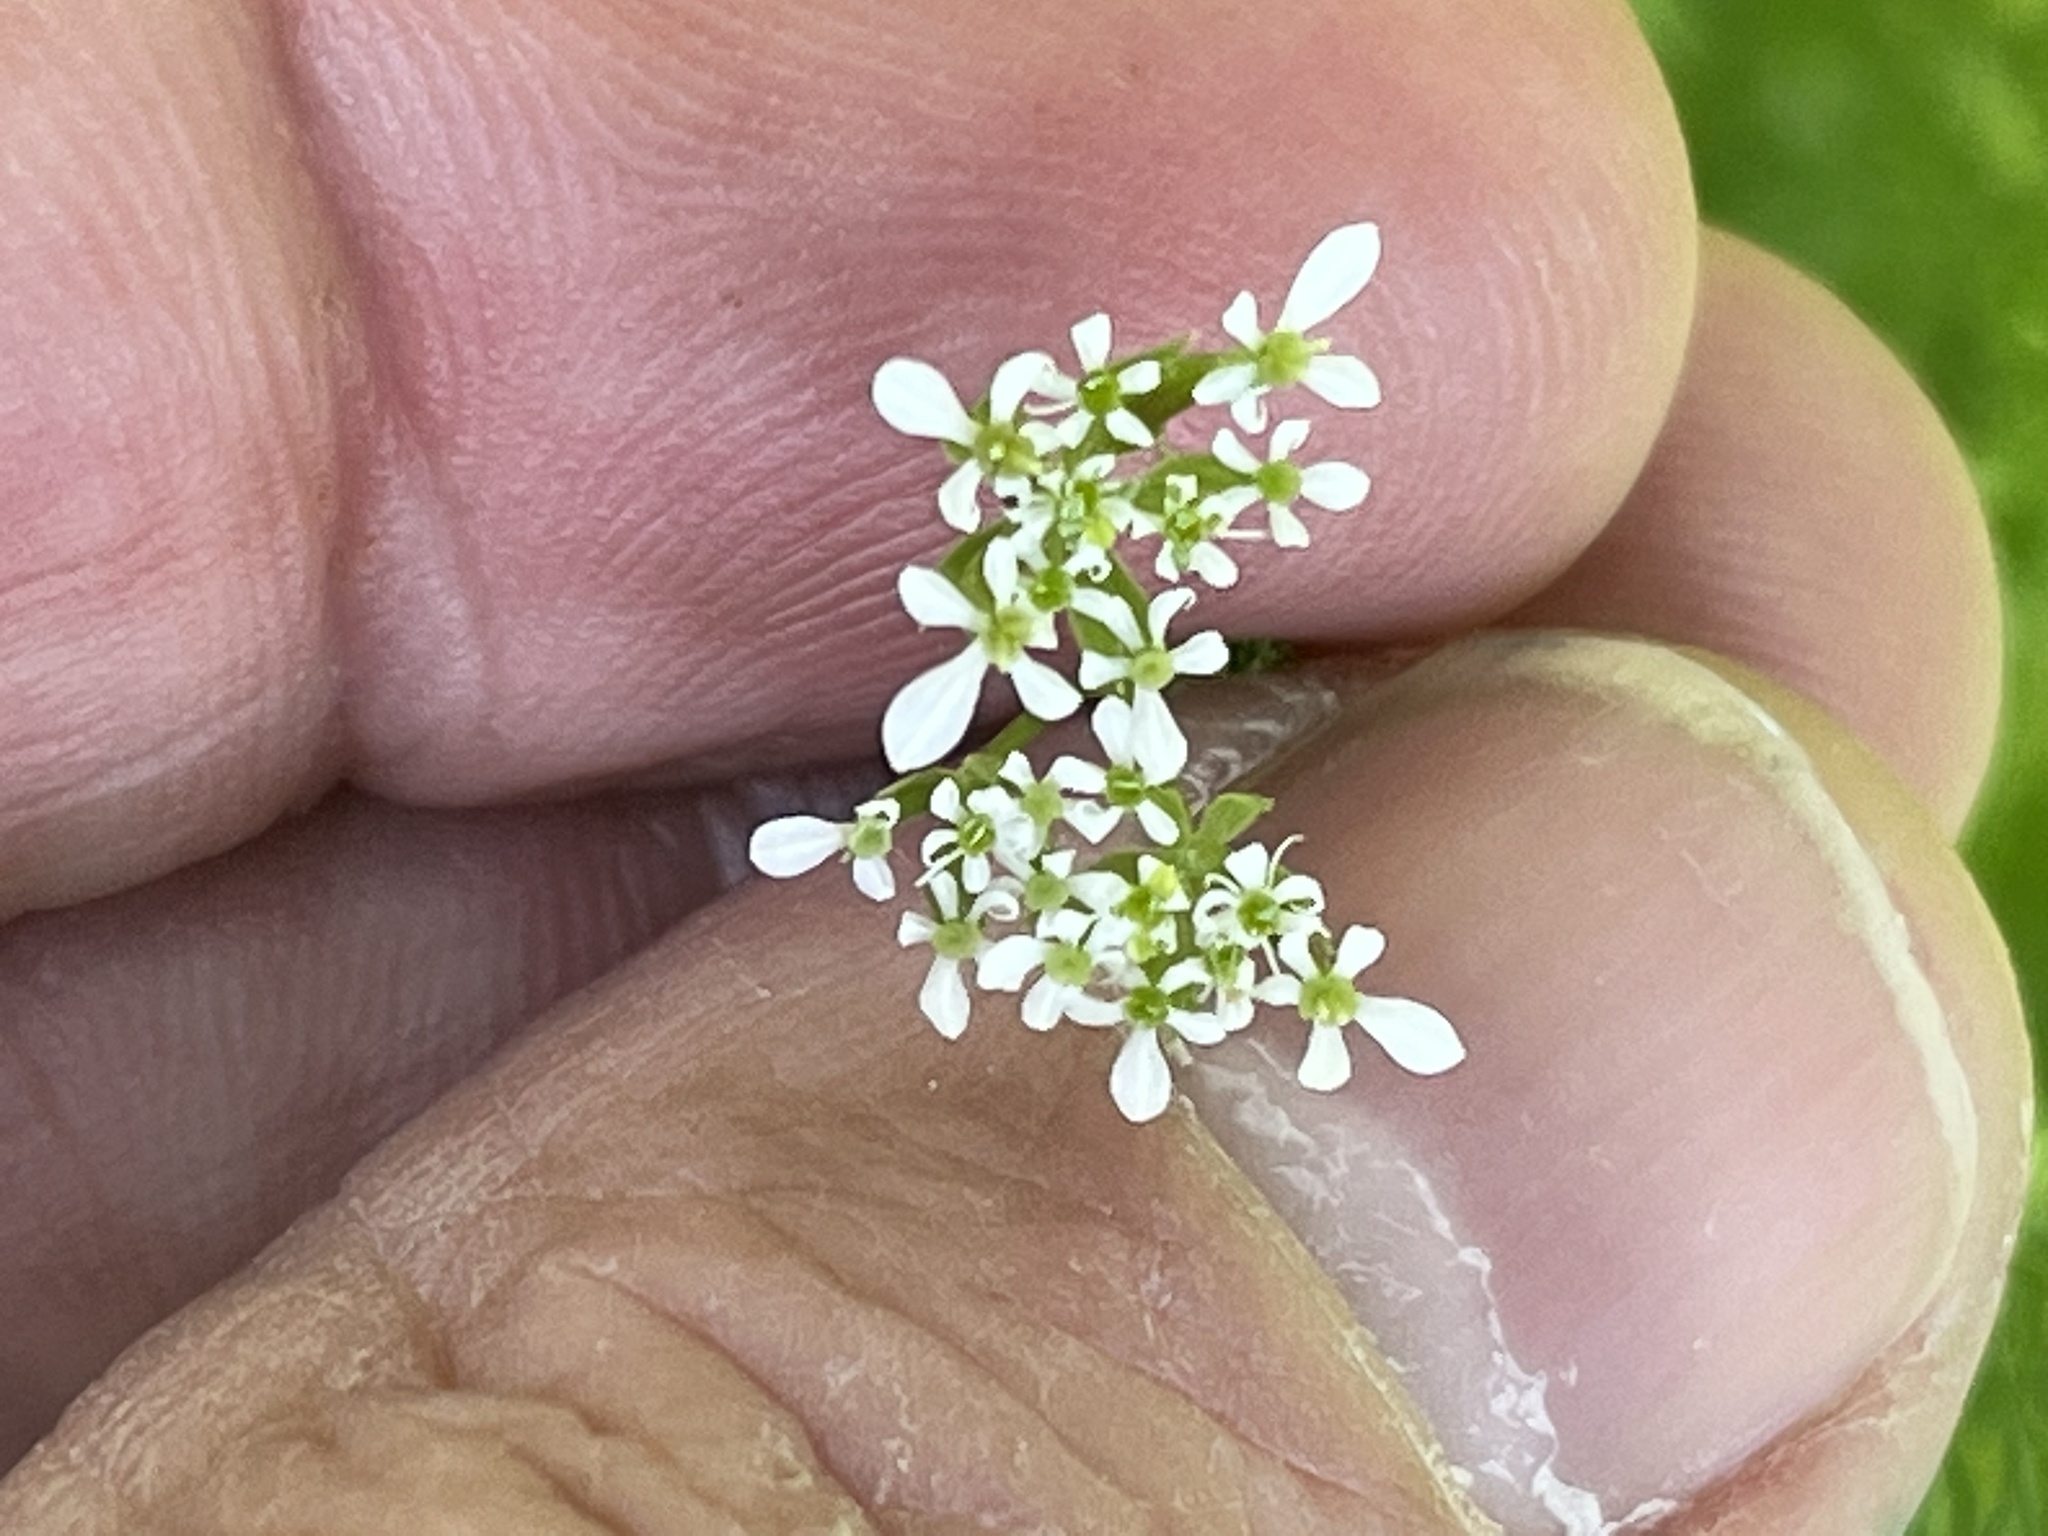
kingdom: Plantae
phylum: Tracheophyta
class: Magnoliopsida
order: Apiales
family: Apiaceae
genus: Scandix
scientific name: Scandix pecten-veneris
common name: Shepherd's-needle
